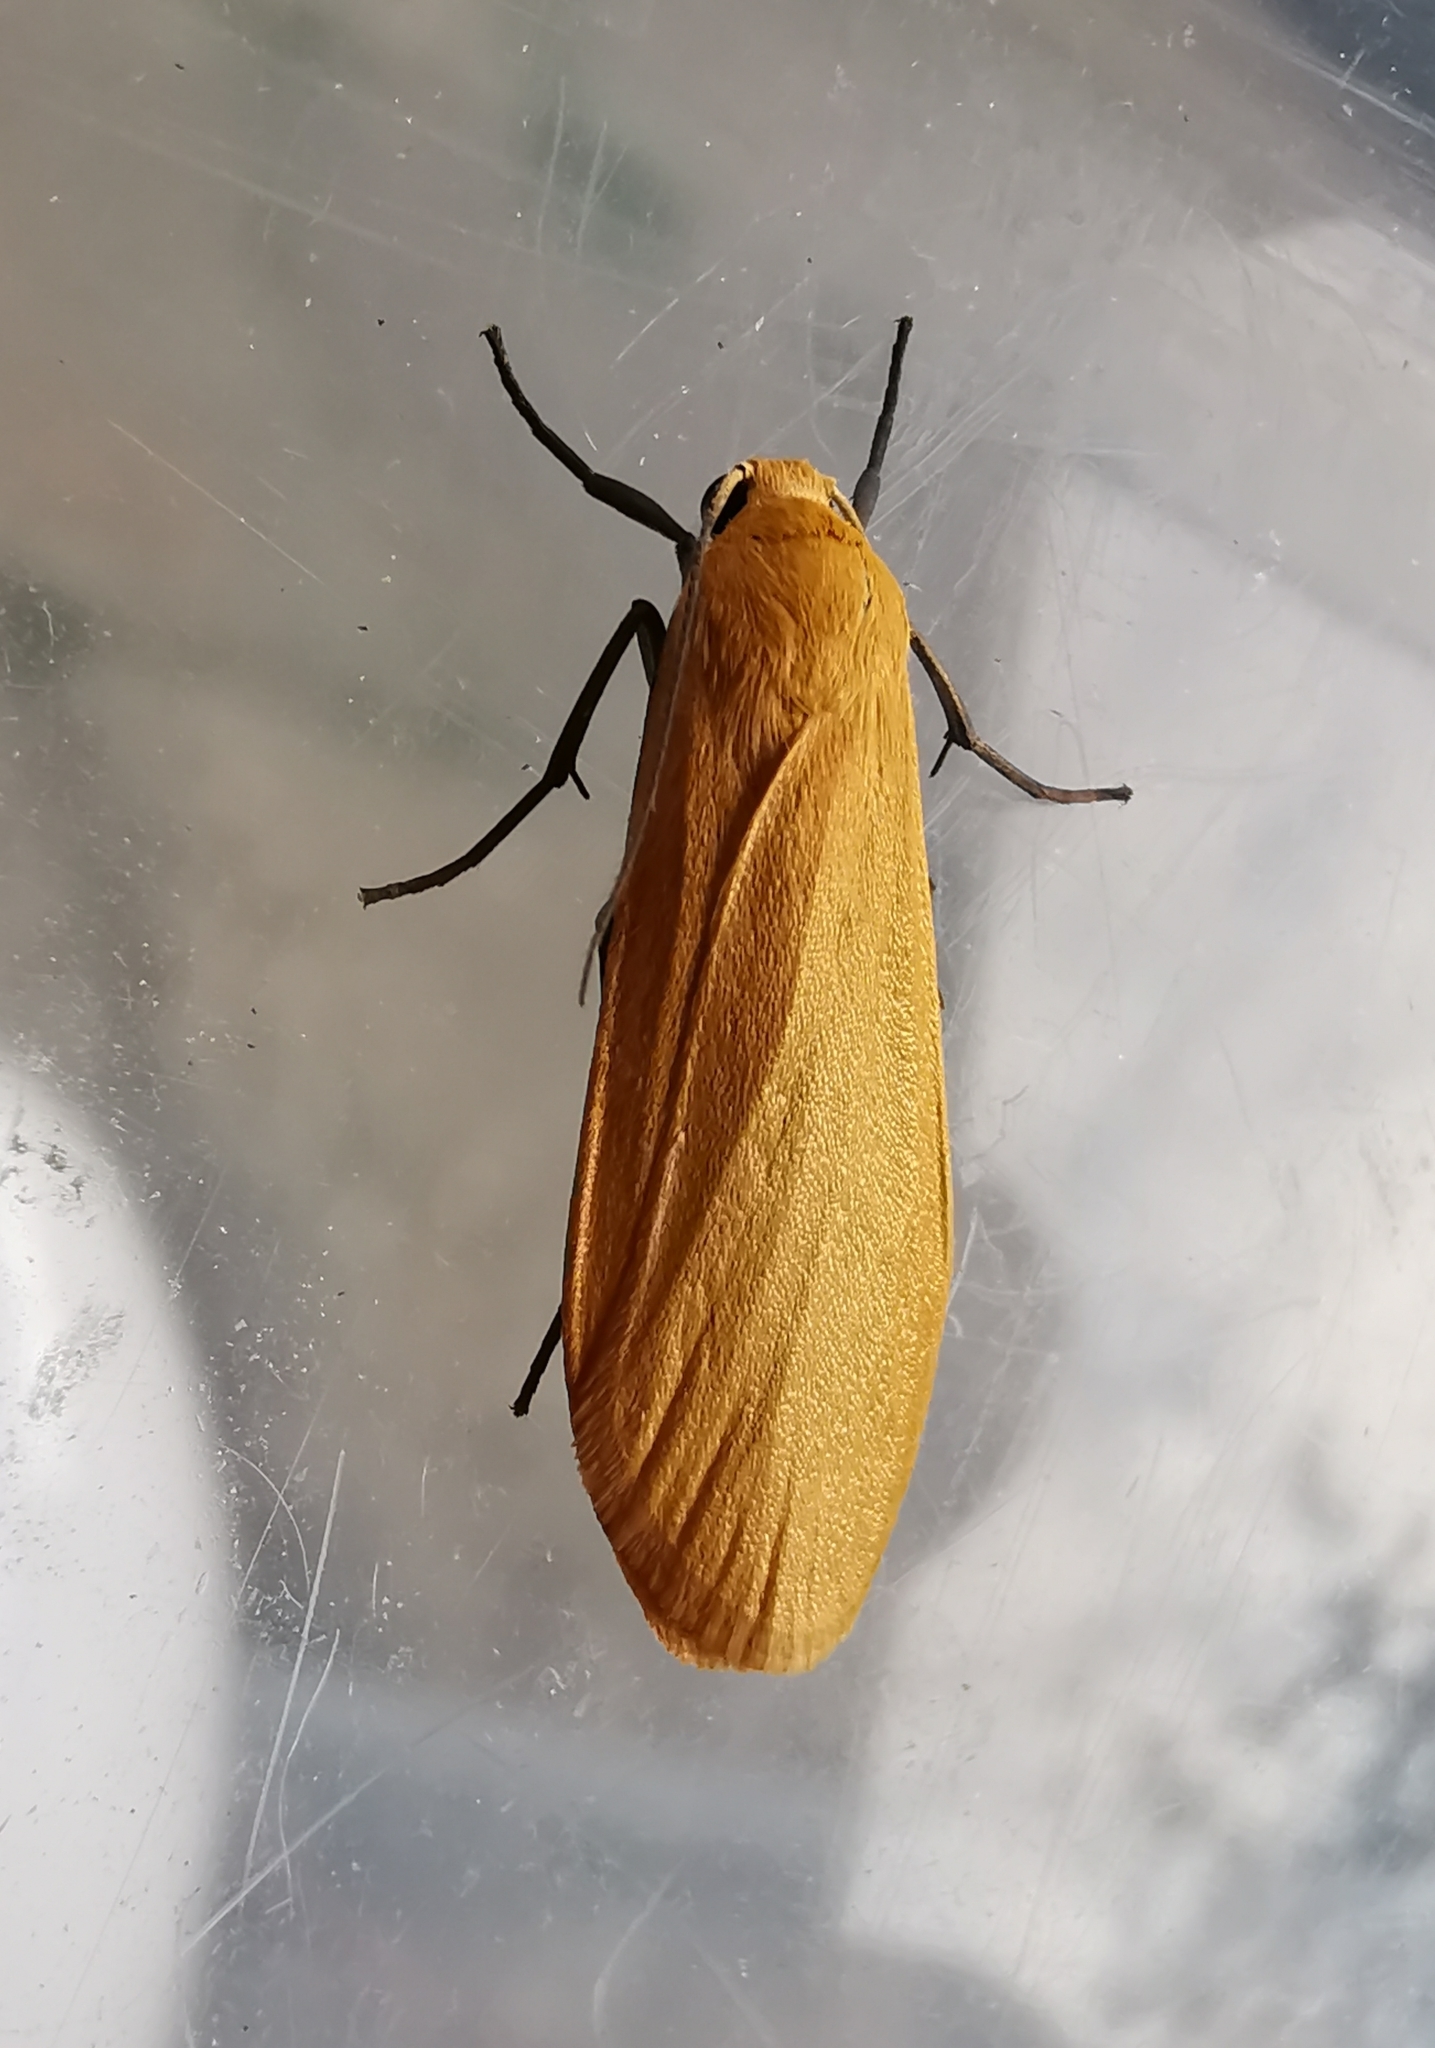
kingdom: Animalia
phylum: Arthropoda
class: Insecta
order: Lepidoptera
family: Erebidae
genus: Wittia
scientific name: Wittia sororcula
